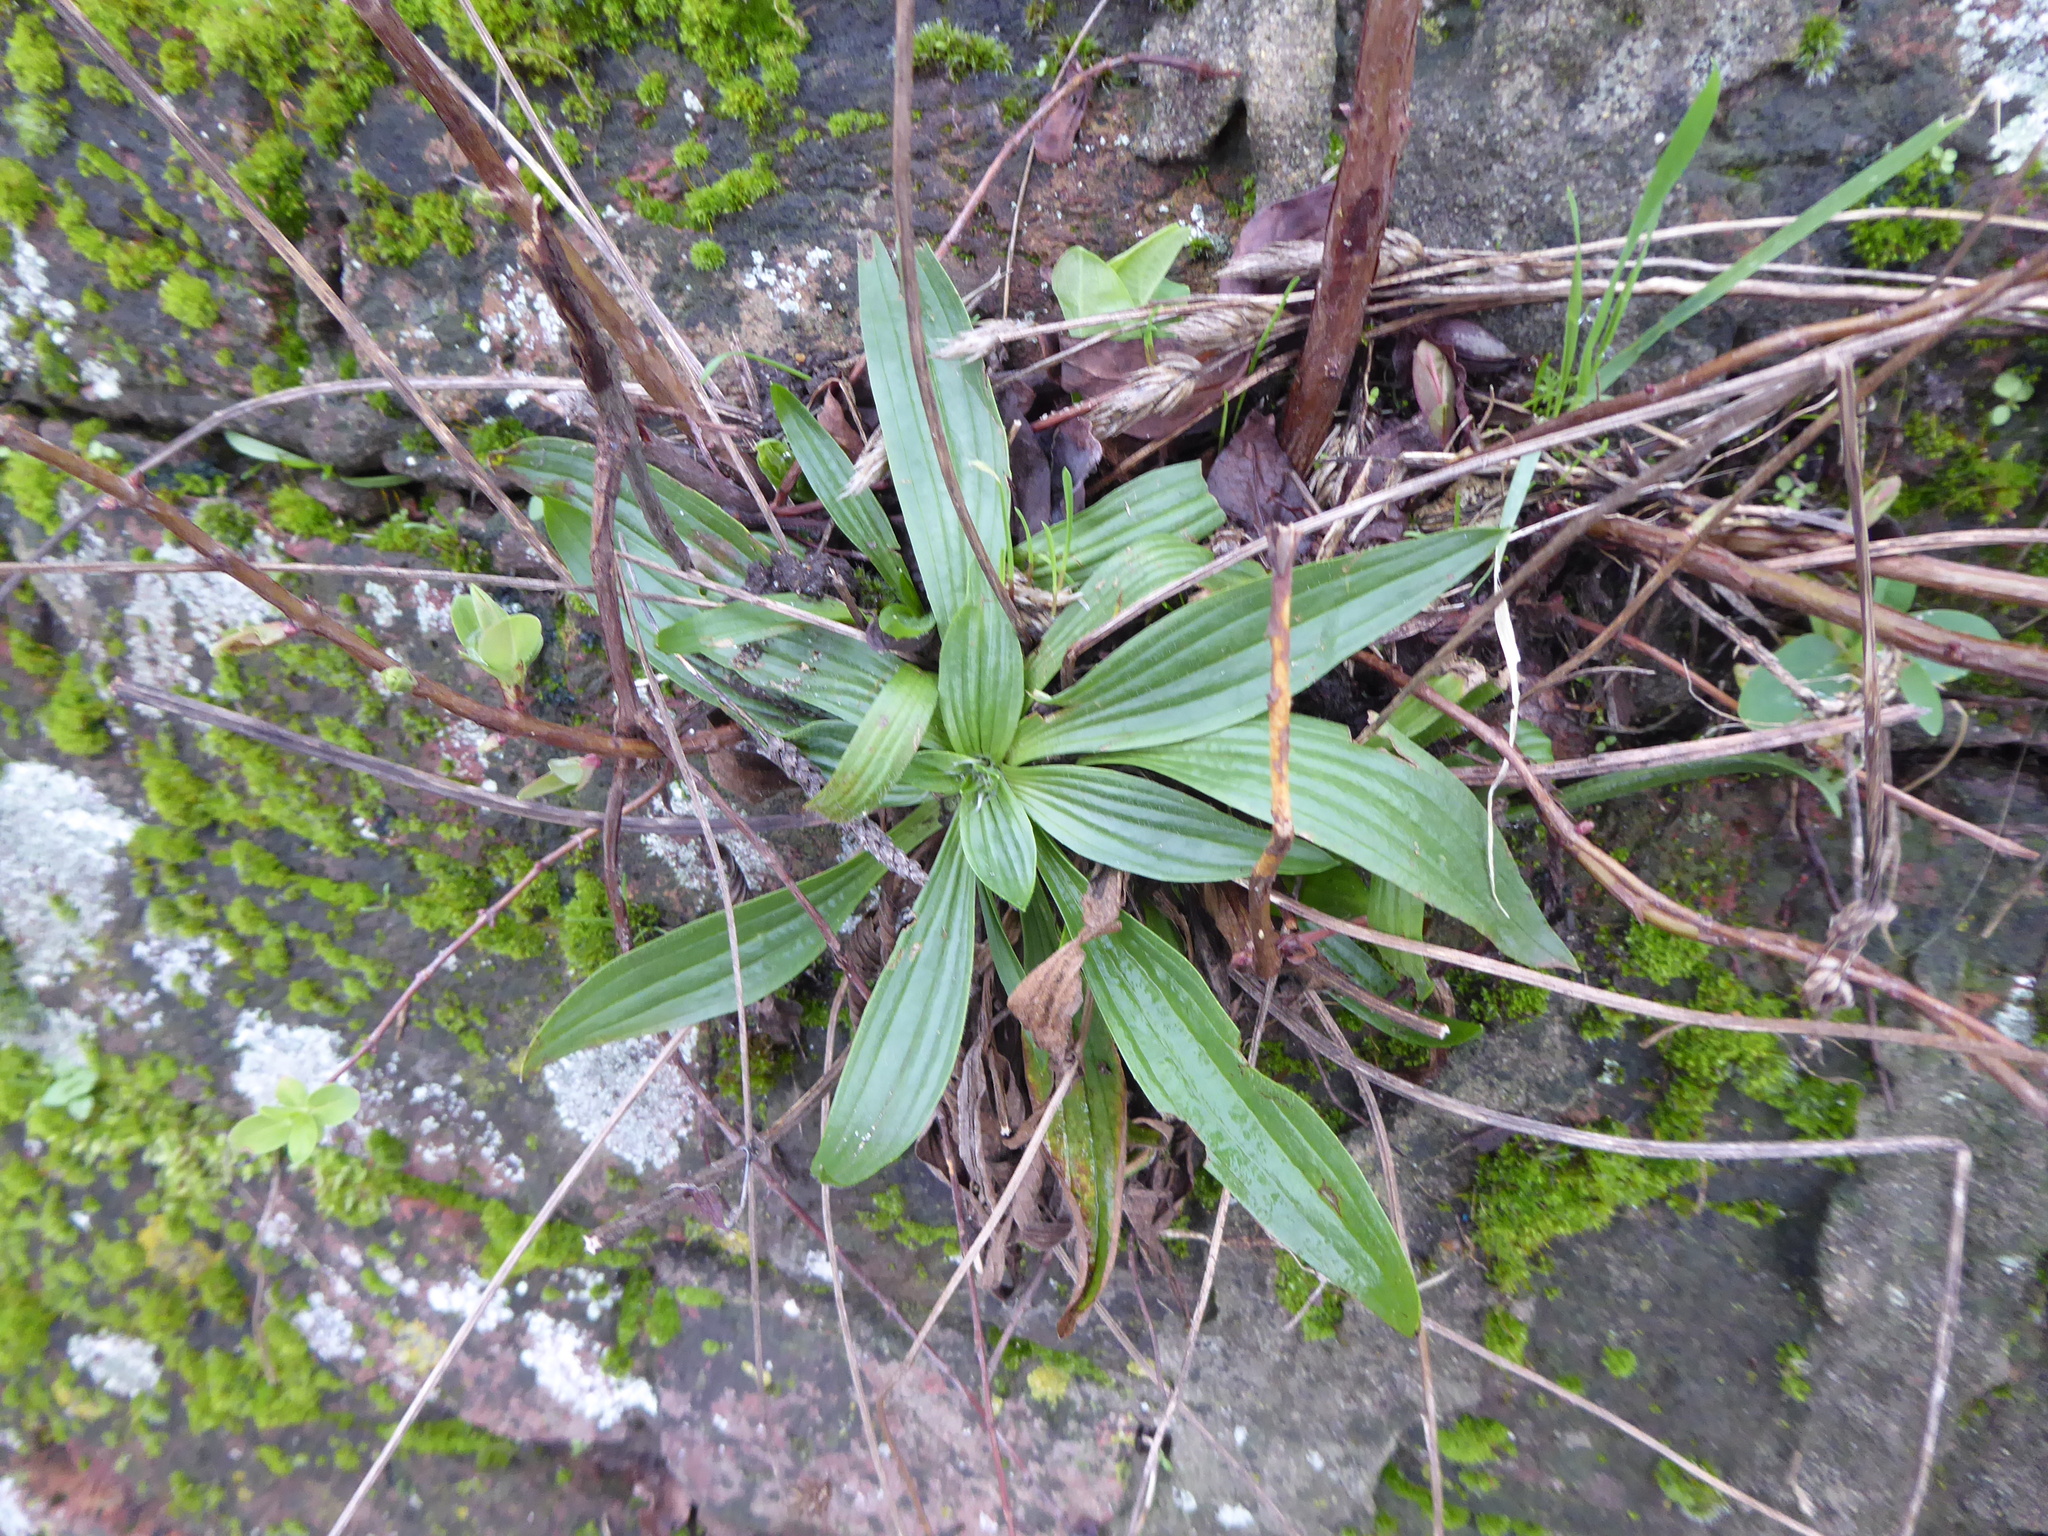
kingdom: Plantae
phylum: Tracheophyta
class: Magnoliopsida
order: Lamiales
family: Plantaginaceae
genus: Plantago
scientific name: Plantago lanceolata
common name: Ribwort plantain
